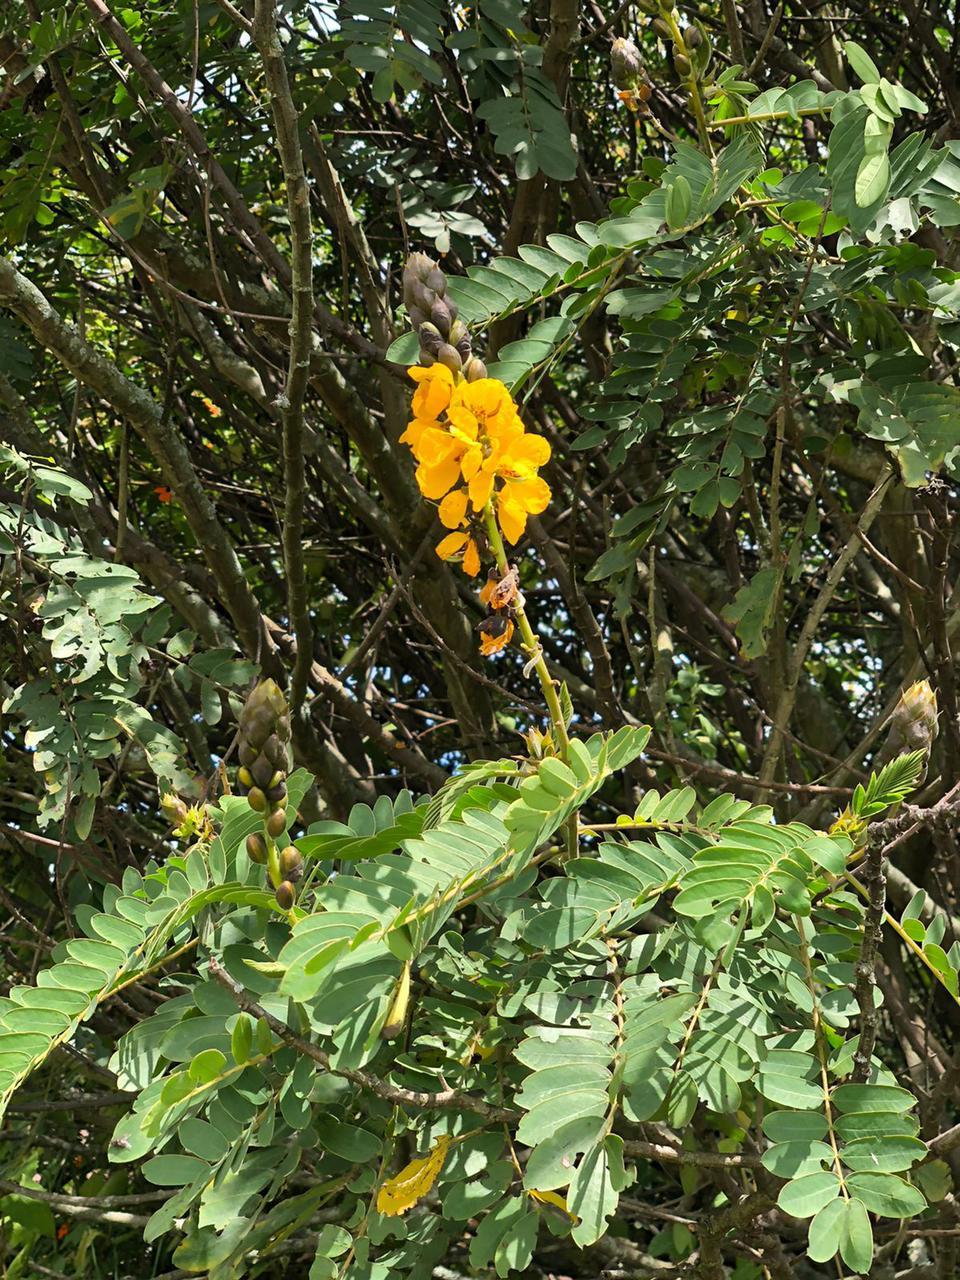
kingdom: Plantae
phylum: Tracheophyta
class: Magnoliopsida
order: Fabales
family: Fabaceae
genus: Senna
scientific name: Senna didymobotrya
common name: African senna
